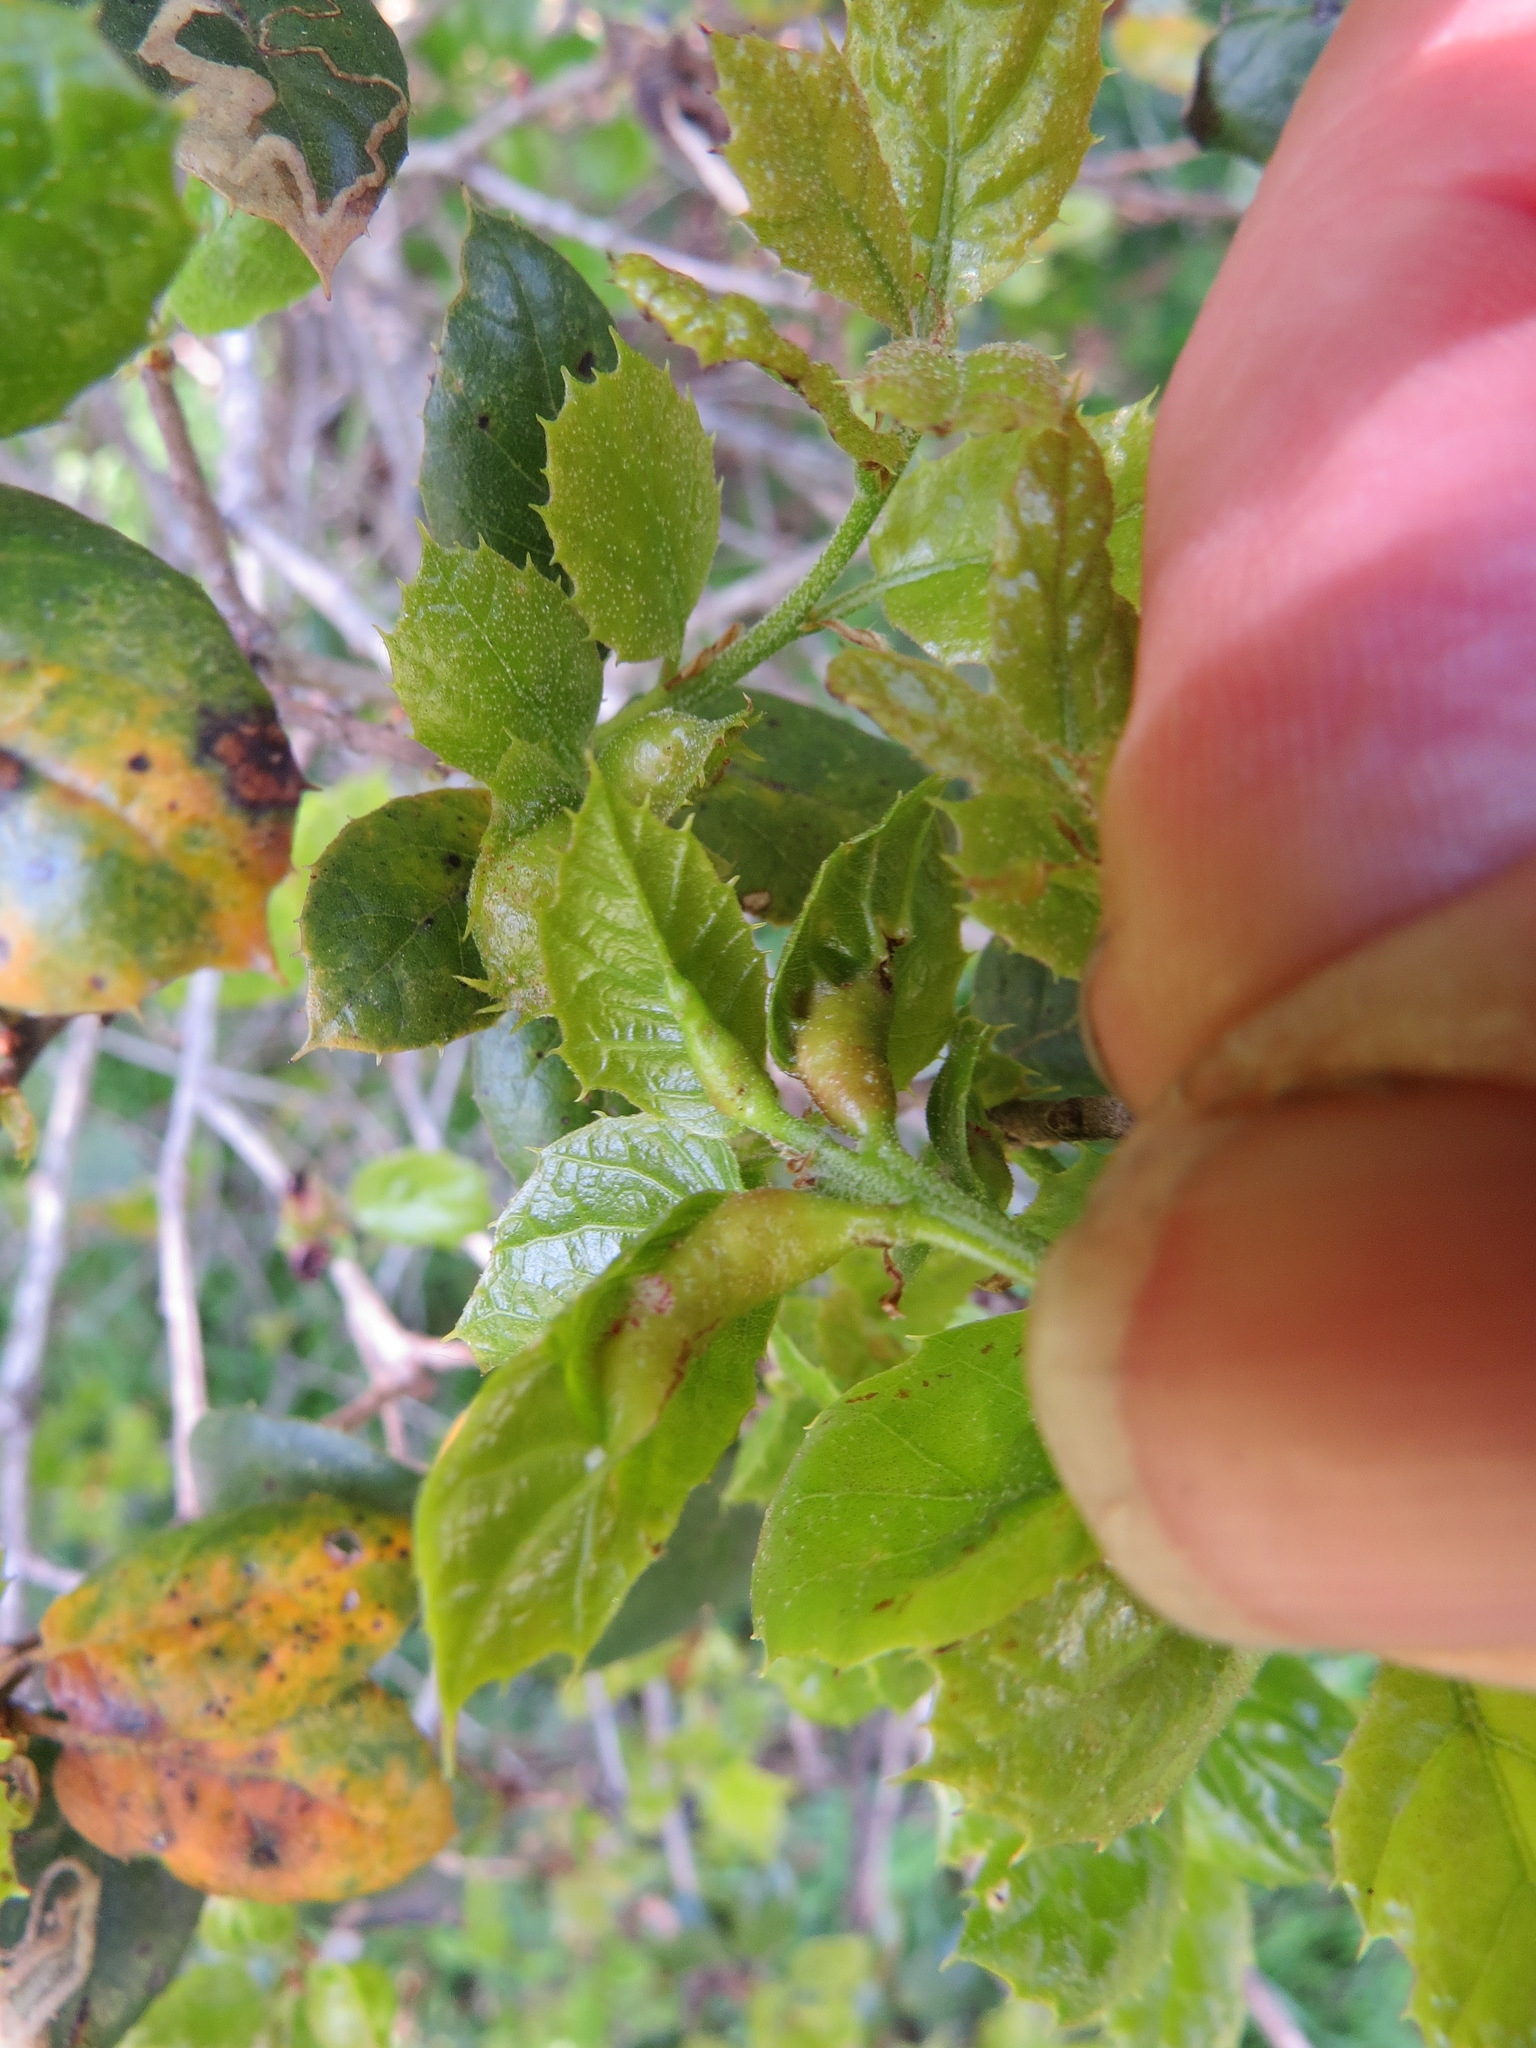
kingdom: Animalia
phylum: Arthropoda
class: Insecta
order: Hymenoptera
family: Cynipidae
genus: Melikaiella
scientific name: Melikaiella
